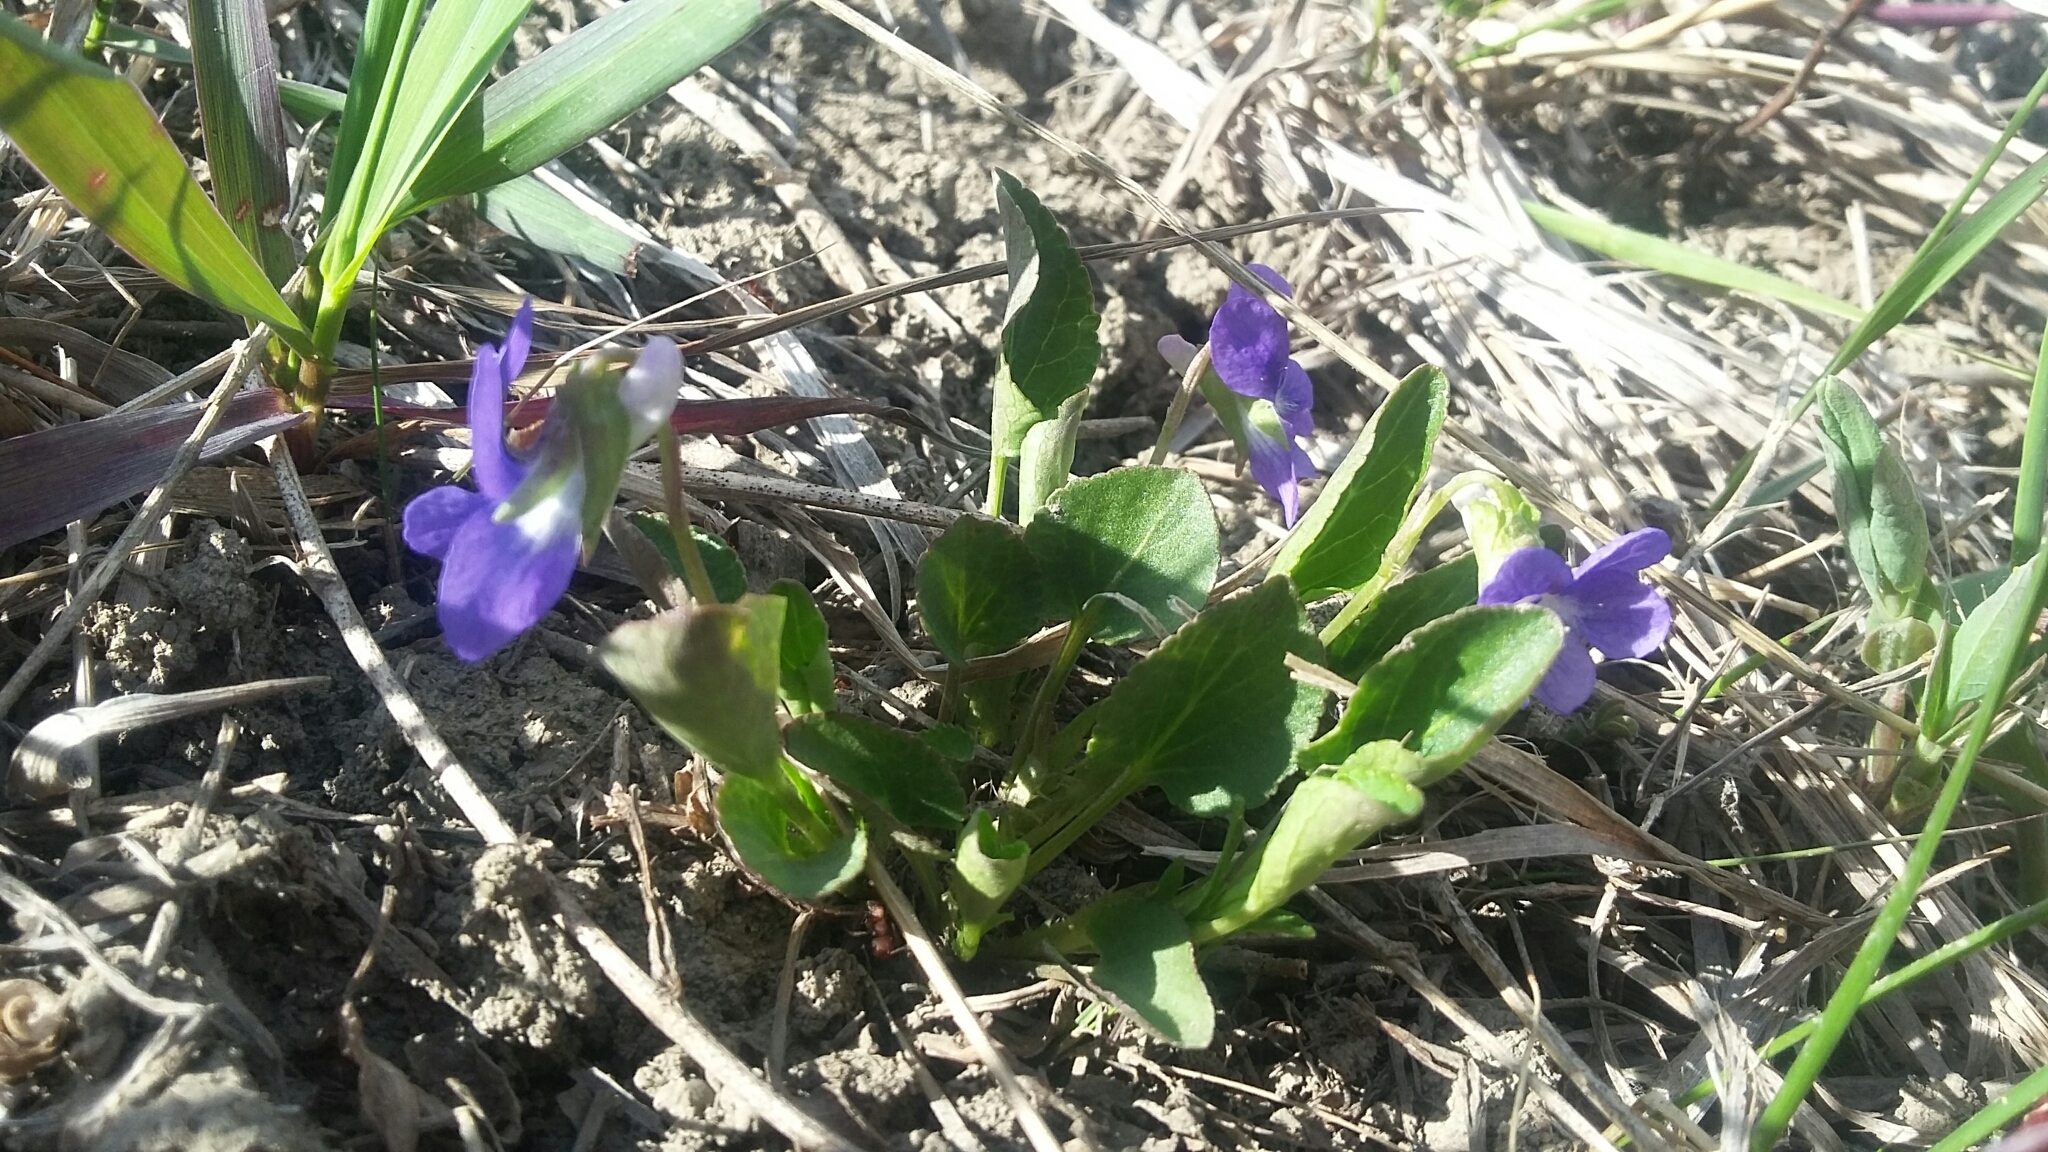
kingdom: Plantae
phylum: Tracheophyta
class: Magnoliopsida
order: Malpighiales
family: Violaceae
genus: Viola
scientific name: Viola adunca
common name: Sand violet
